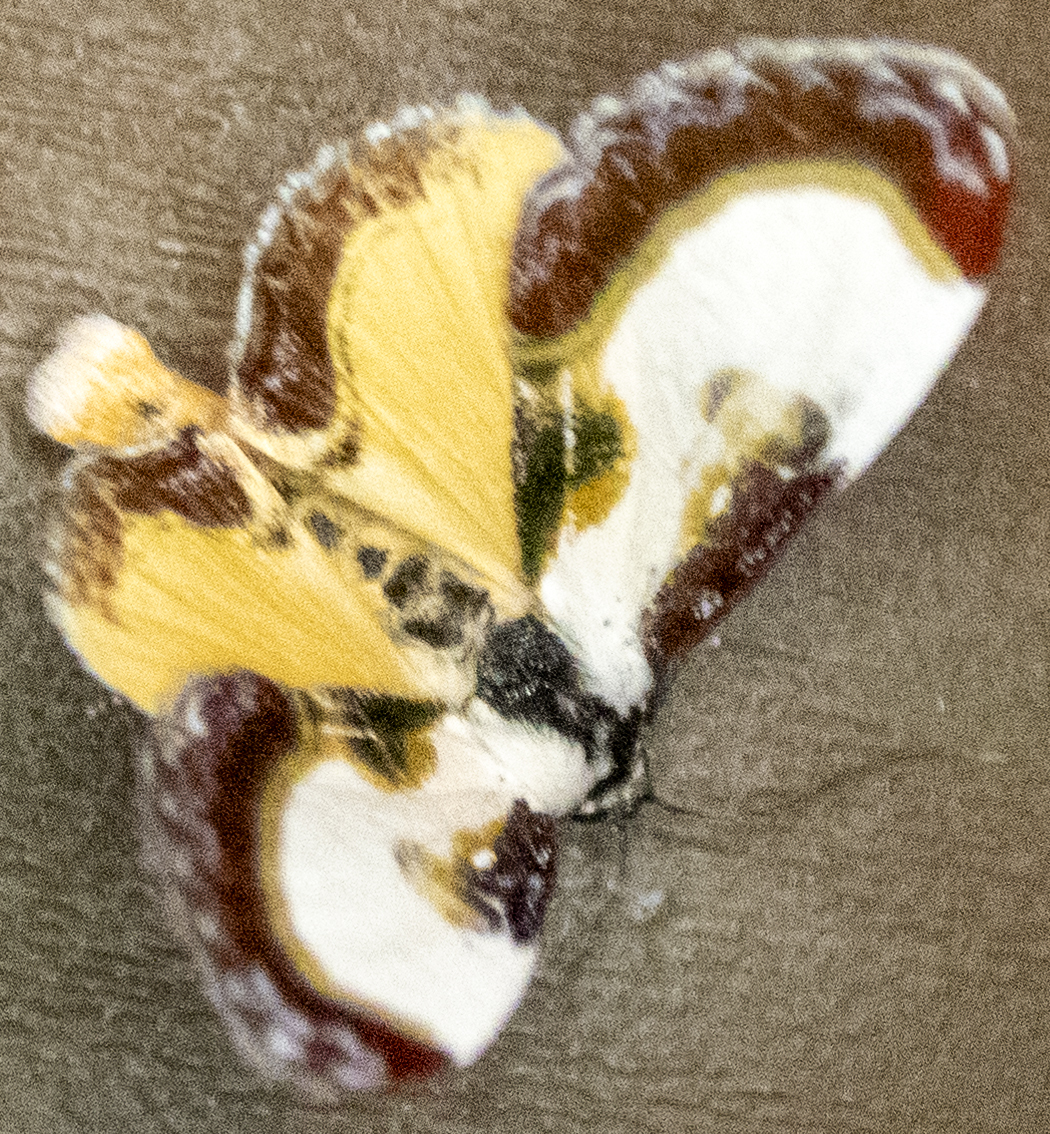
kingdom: Animalia
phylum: Arthropoda
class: Insecta
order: Lepidoptera
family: Noctuidae
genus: Eudryas
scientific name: Eudryas grata
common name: Beautiful wood-nymph
